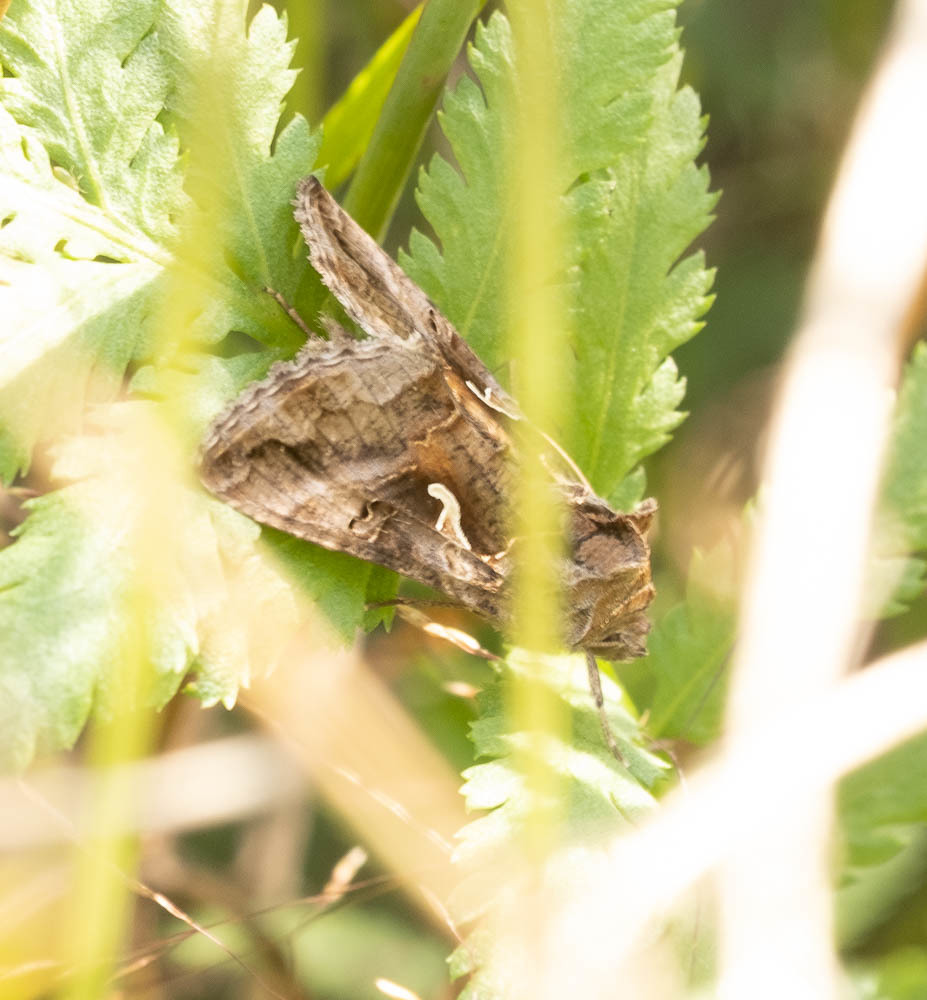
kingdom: Animalia
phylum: Arthropoda
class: Insecta
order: Lepidoptera
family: Noctuidae
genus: Autographa
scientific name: Autographa gamma
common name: Silver y
